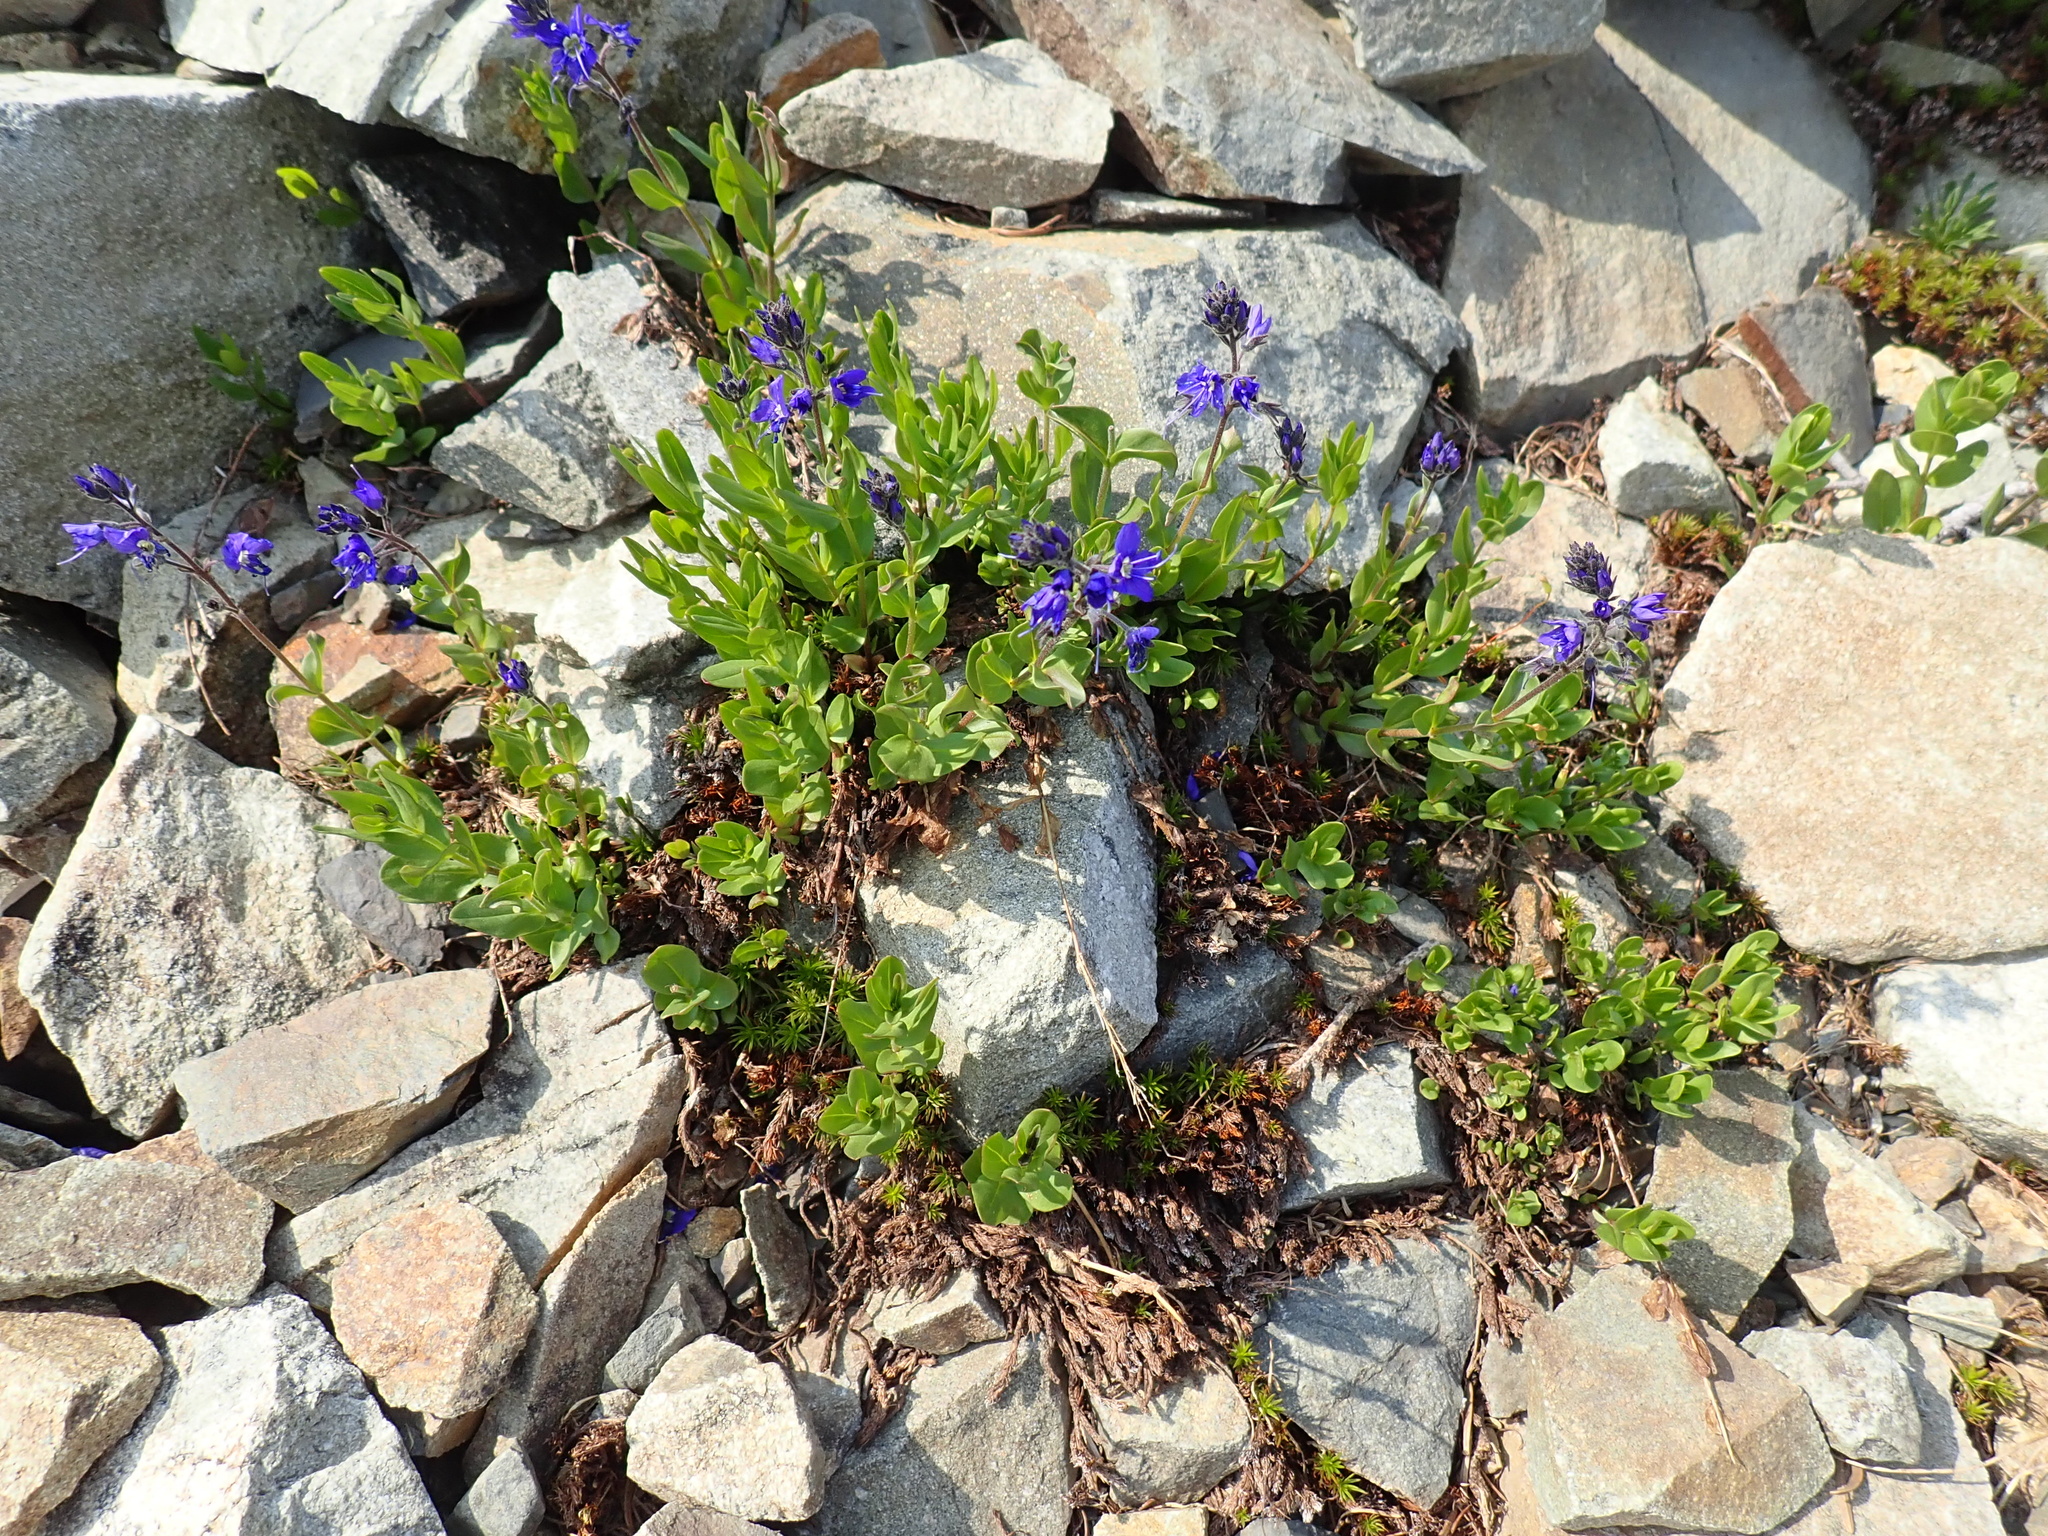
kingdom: Plantae
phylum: Tracheophyta
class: Magnoliopsida
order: Lamiales
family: Plantaginaceae
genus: Veronica
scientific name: Veronica cusickii
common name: Cusick's speedwell
